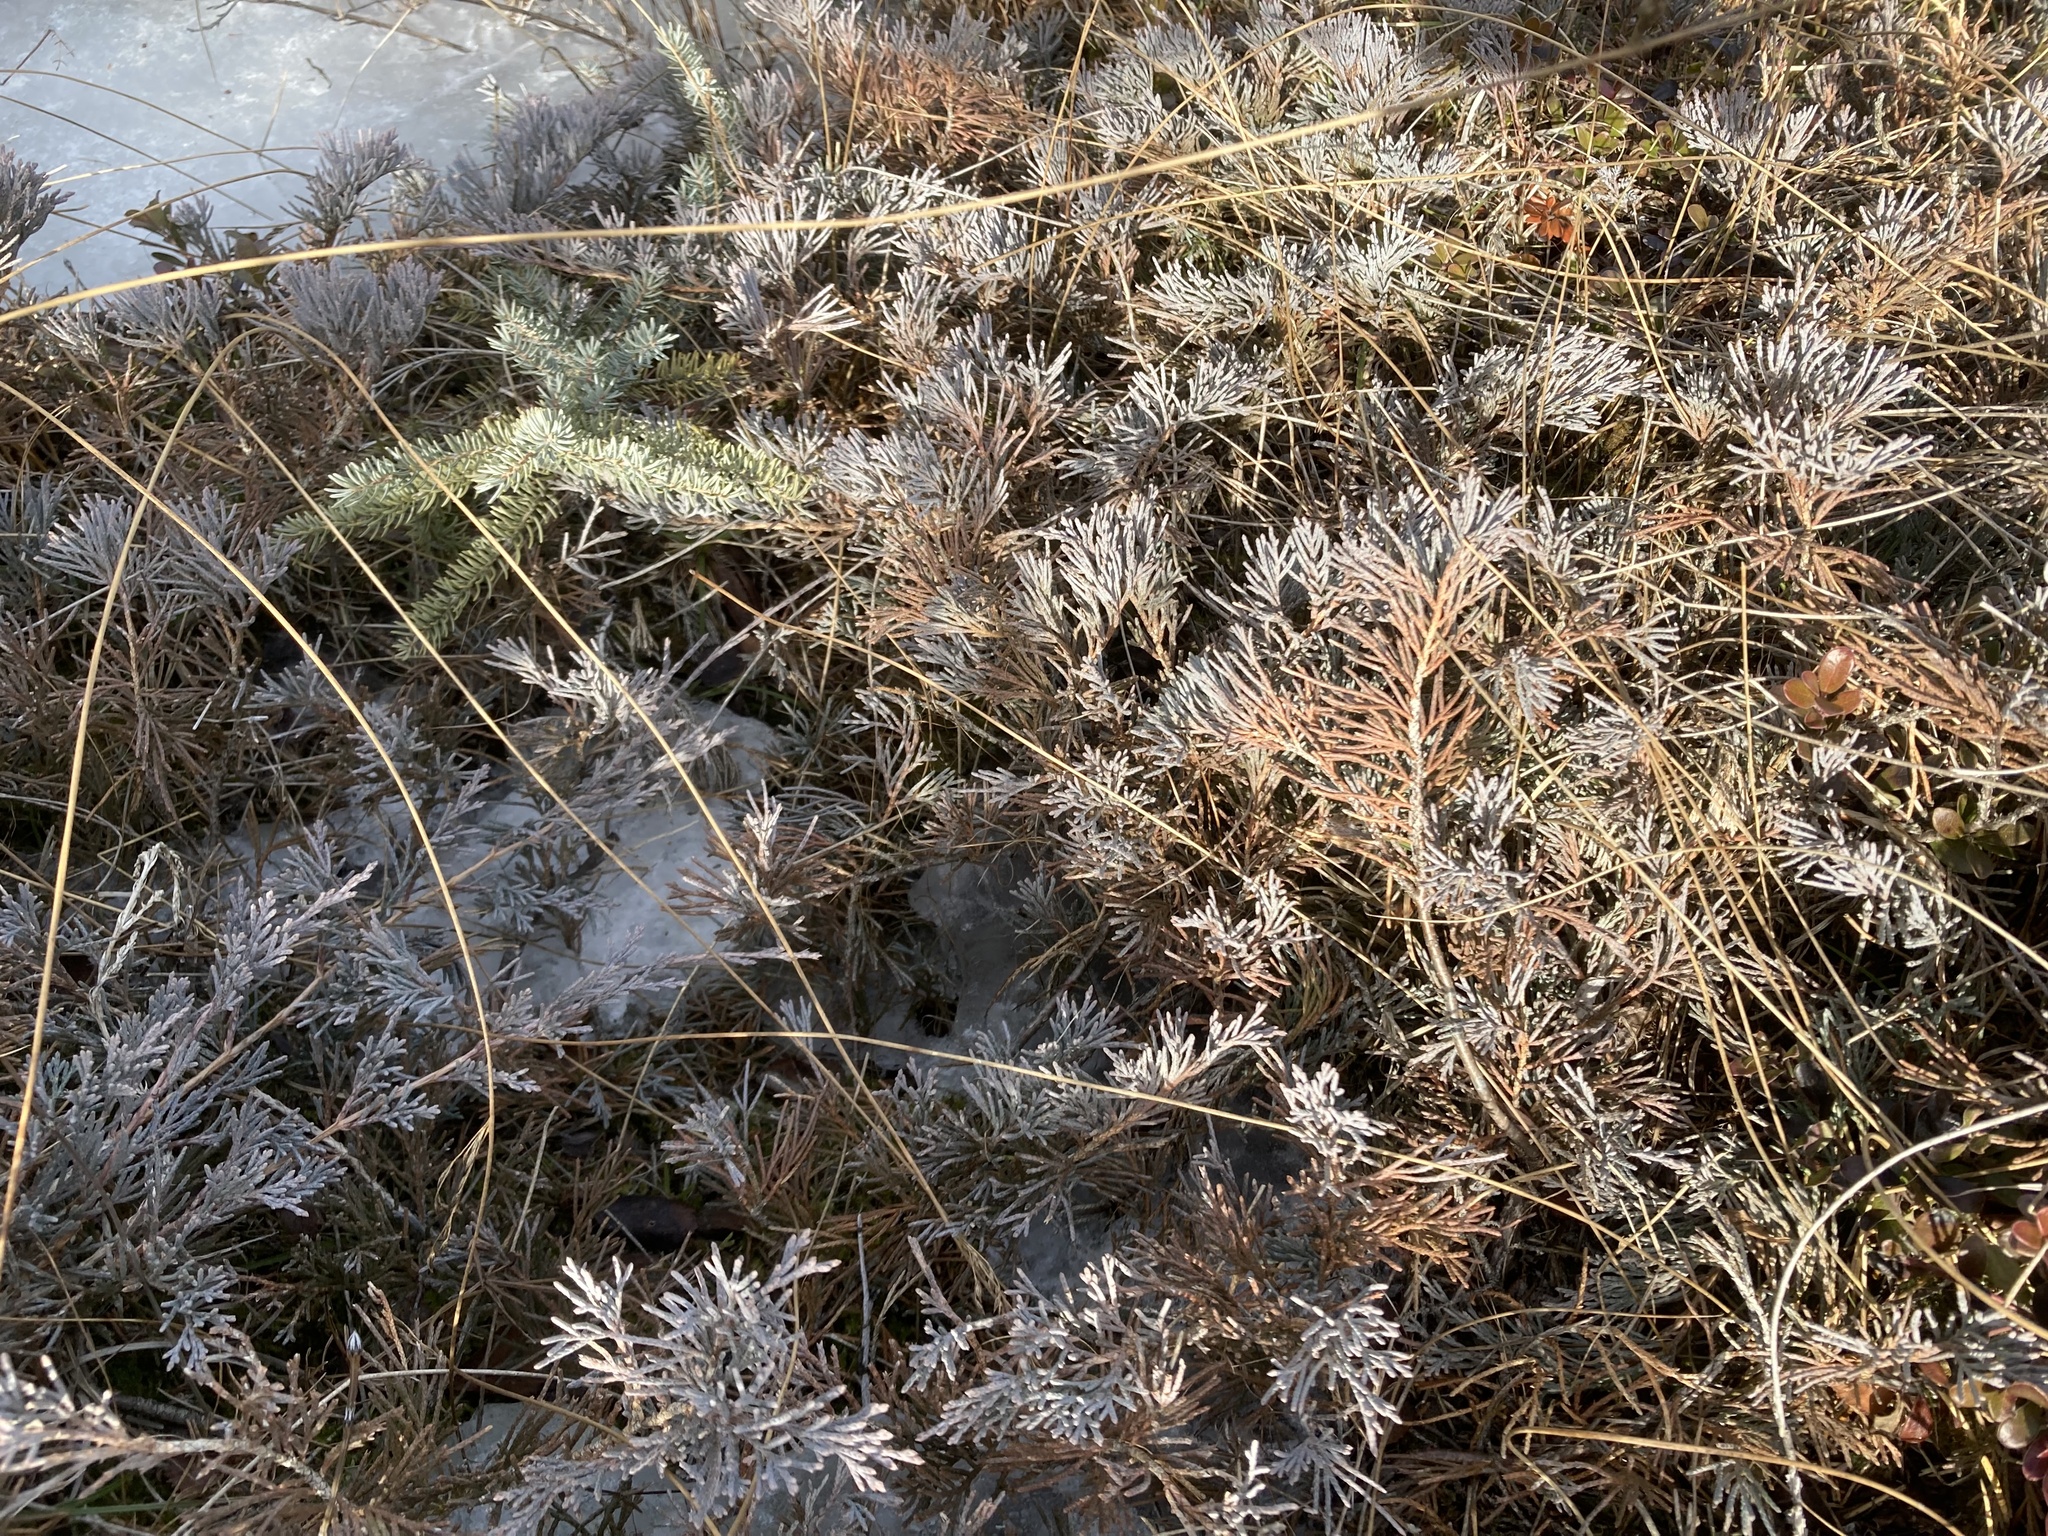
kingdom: Plantae
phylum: Tracheophyta
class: Pinopsida
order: Pinales
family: Cupressaceae
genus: Juniperus
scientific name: Juniperus horizontalis
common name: Creeping juniper
